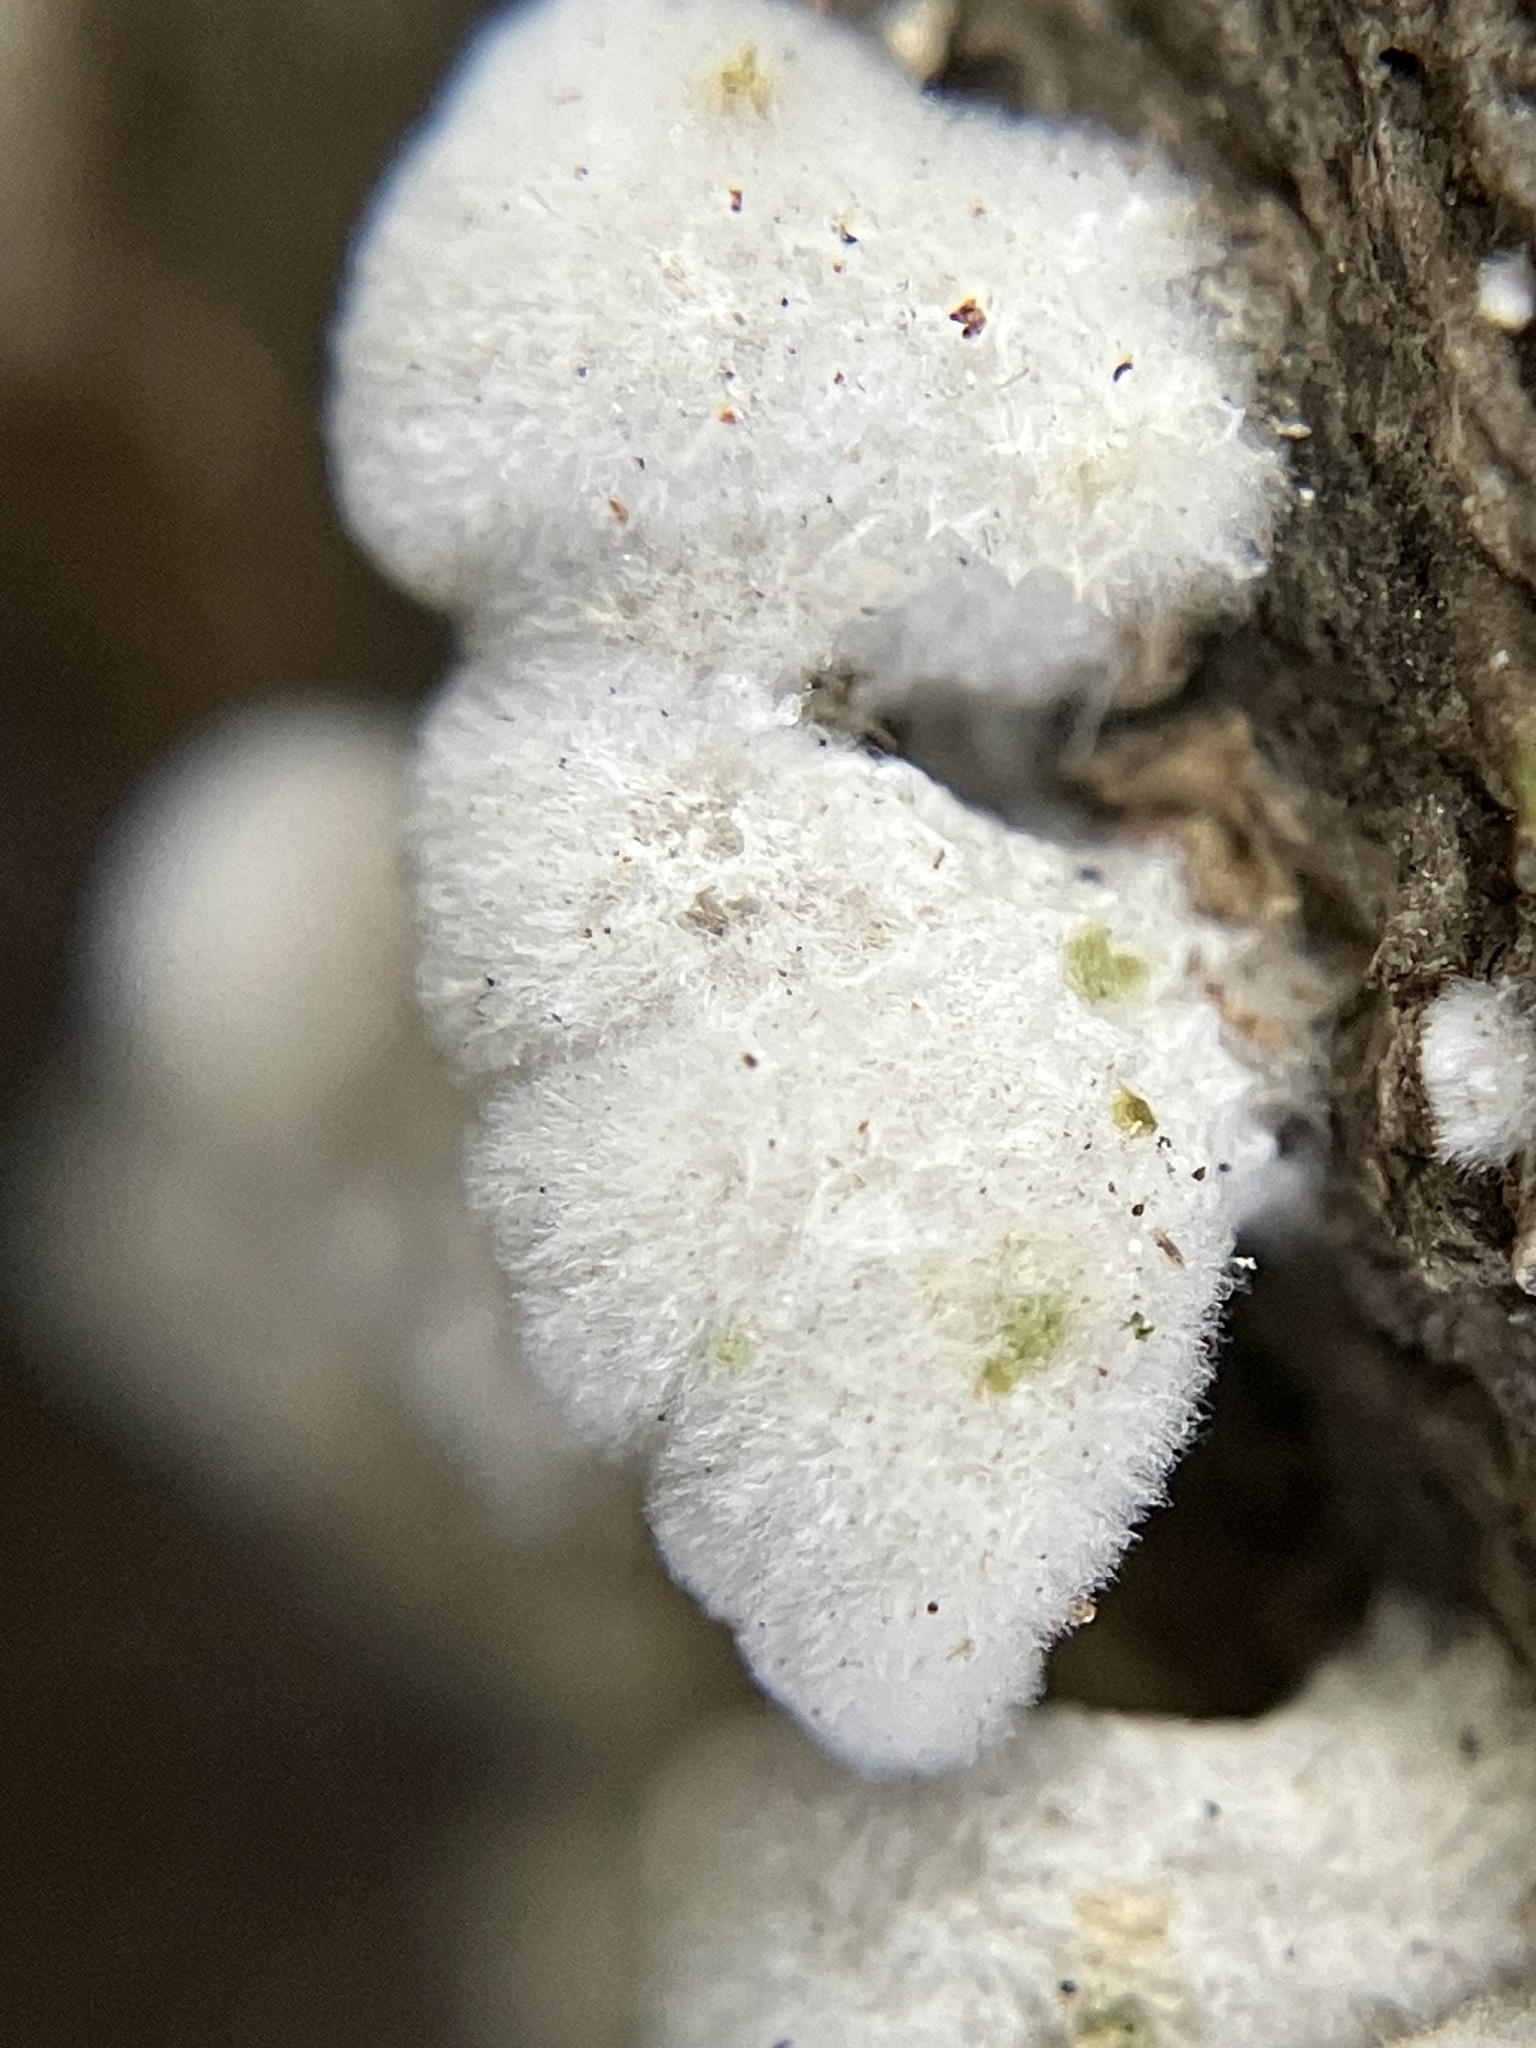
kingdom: Fungi
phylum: Basidiomycota
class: Agaricomycetes
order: Agaricales
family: Schizophyllaceae
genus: Schizophyllum
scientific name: Schizophyllum commune
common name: Common porecrust
